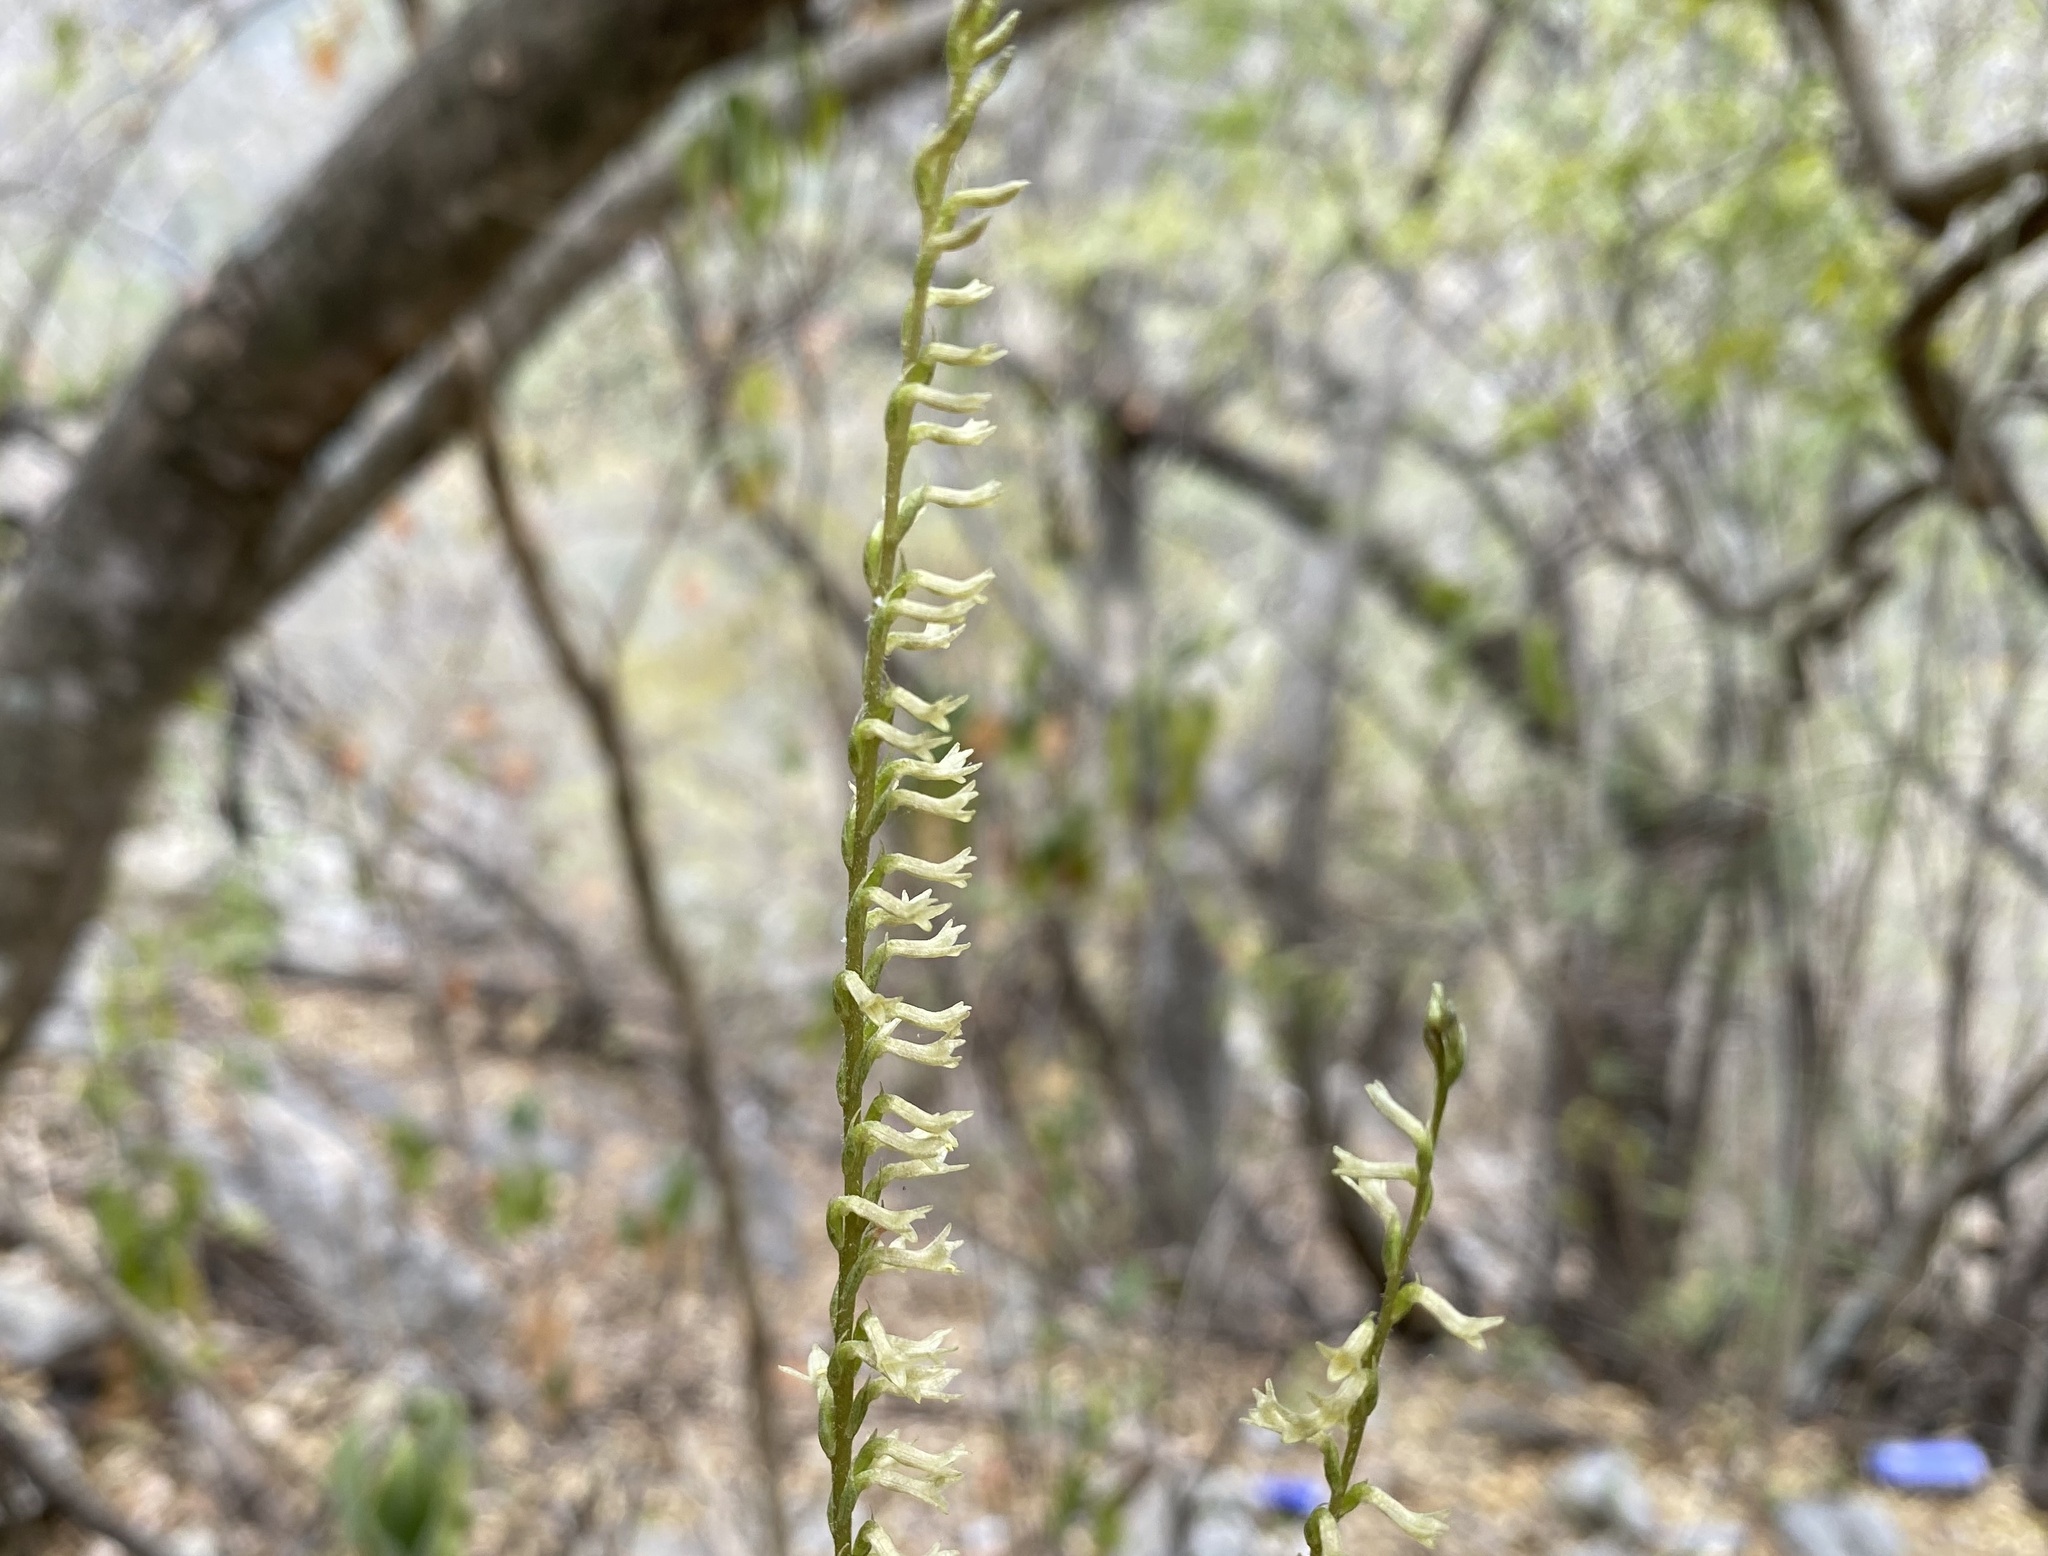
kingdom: Plantae
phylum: Tracheophyta
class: Liliopsida
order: Asparagales
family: Orchidaceae
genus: Mesadenus
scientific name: Mesadenus polyanthus
